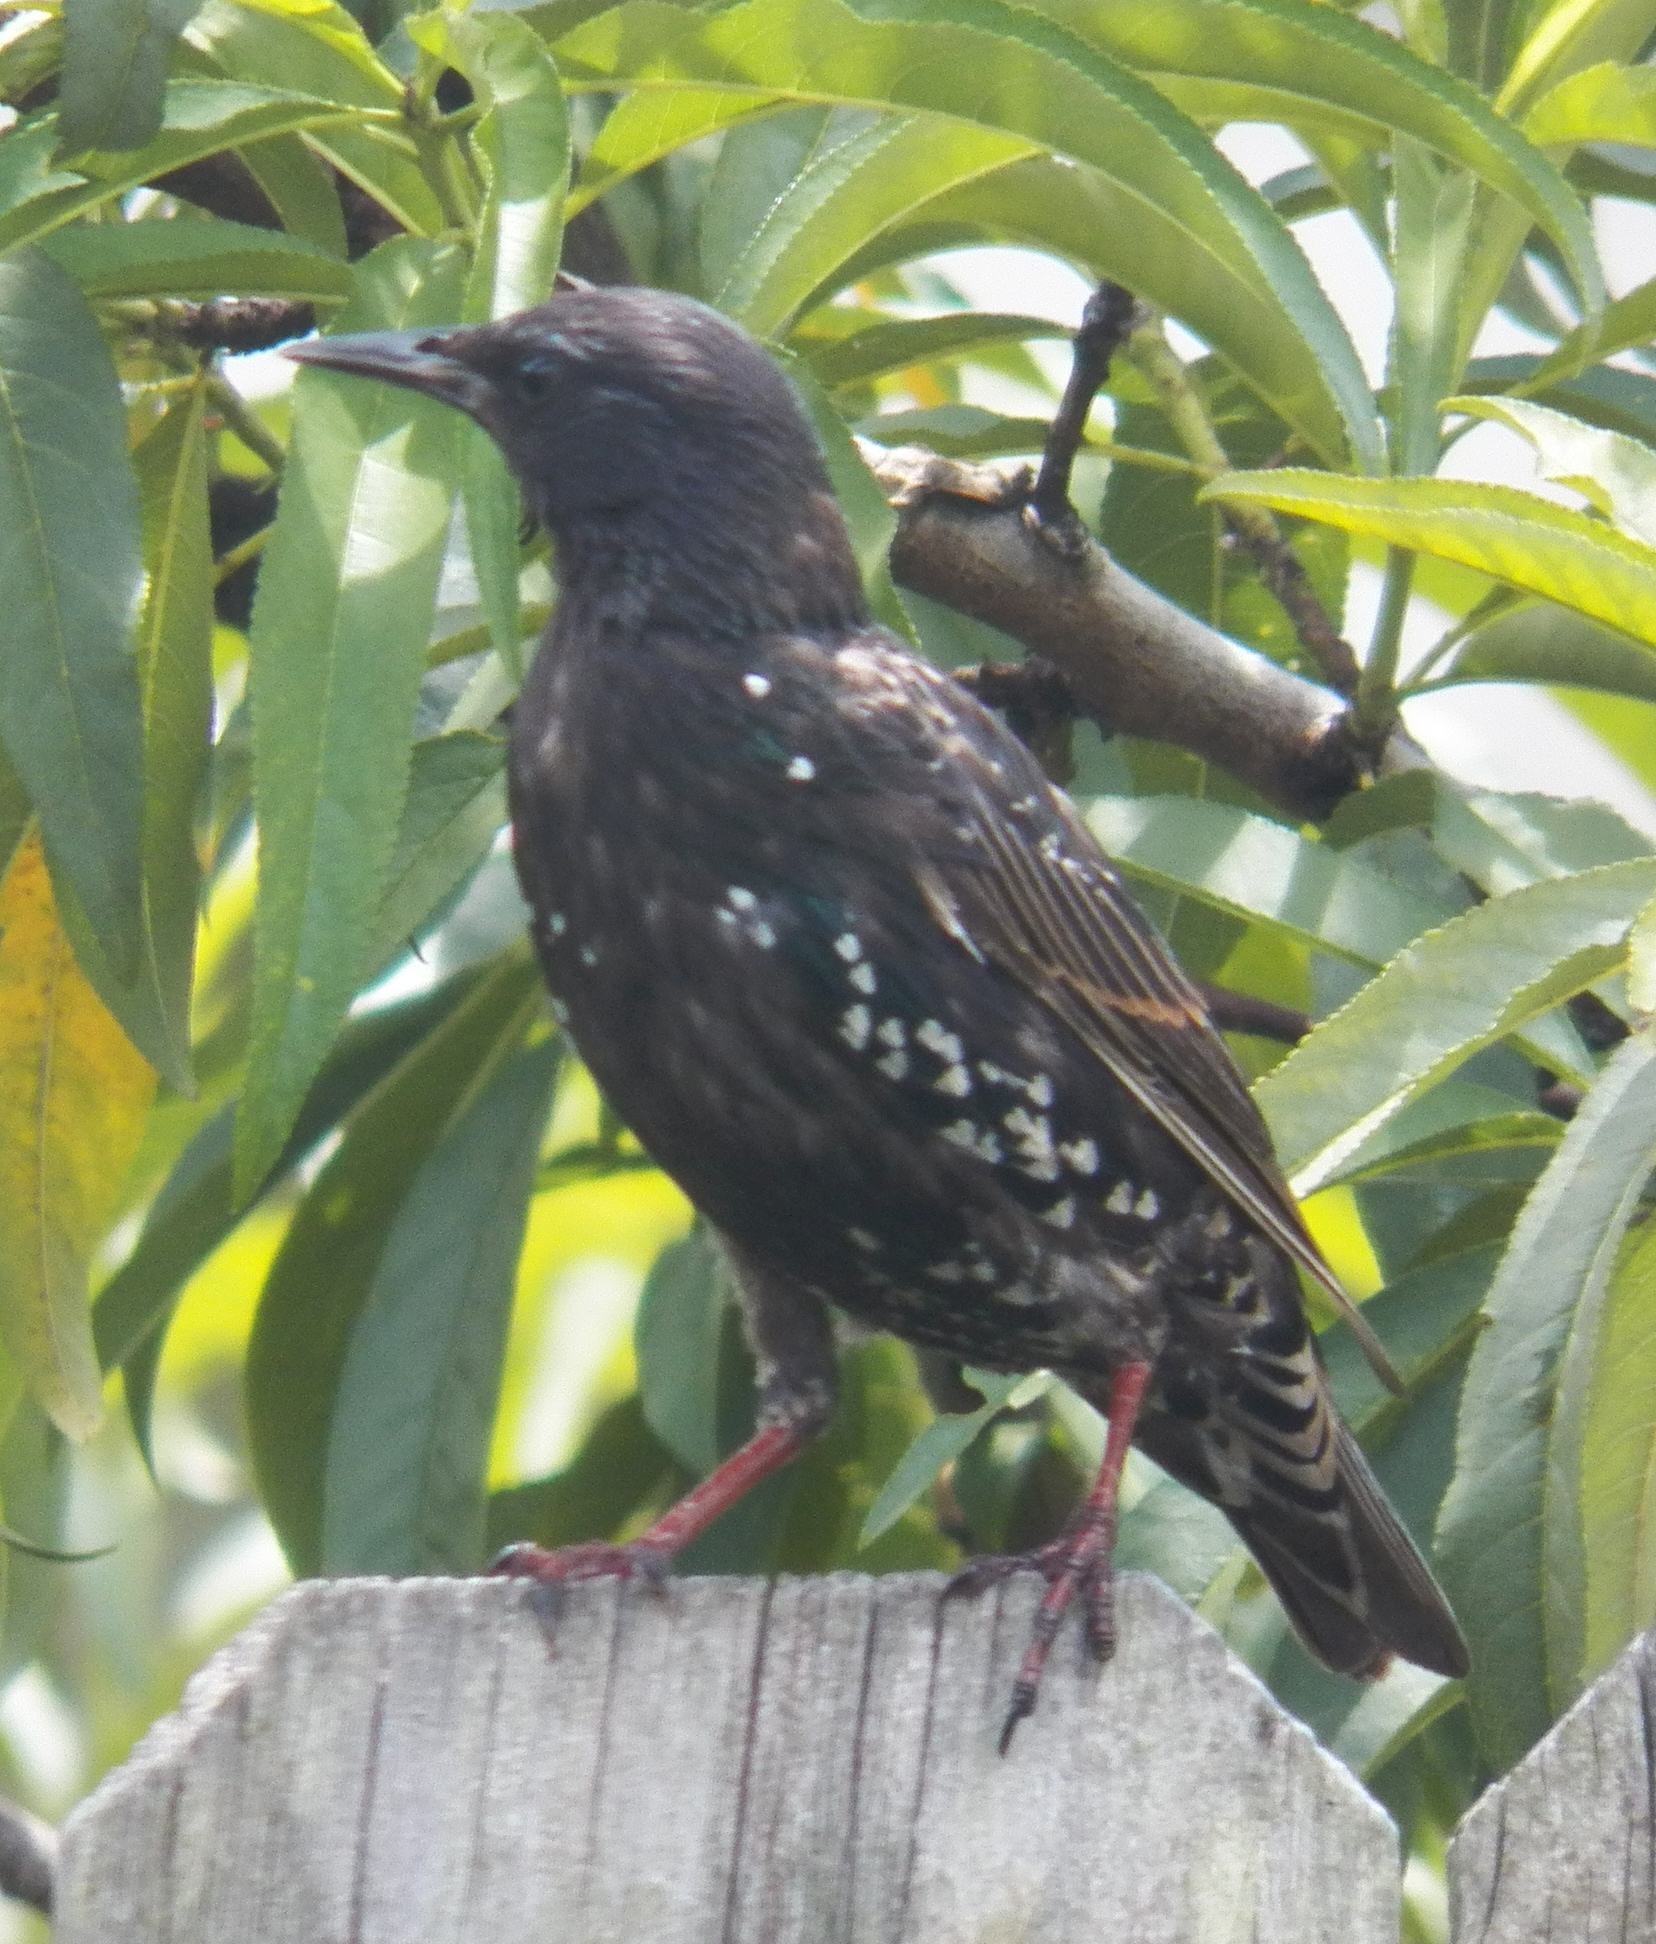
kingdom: Animalia
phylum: Chordata
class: Aves
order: Passeriformes
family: Sturnidae
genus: Sturnus
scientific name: Sturnus vulgaris
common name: Common starling
